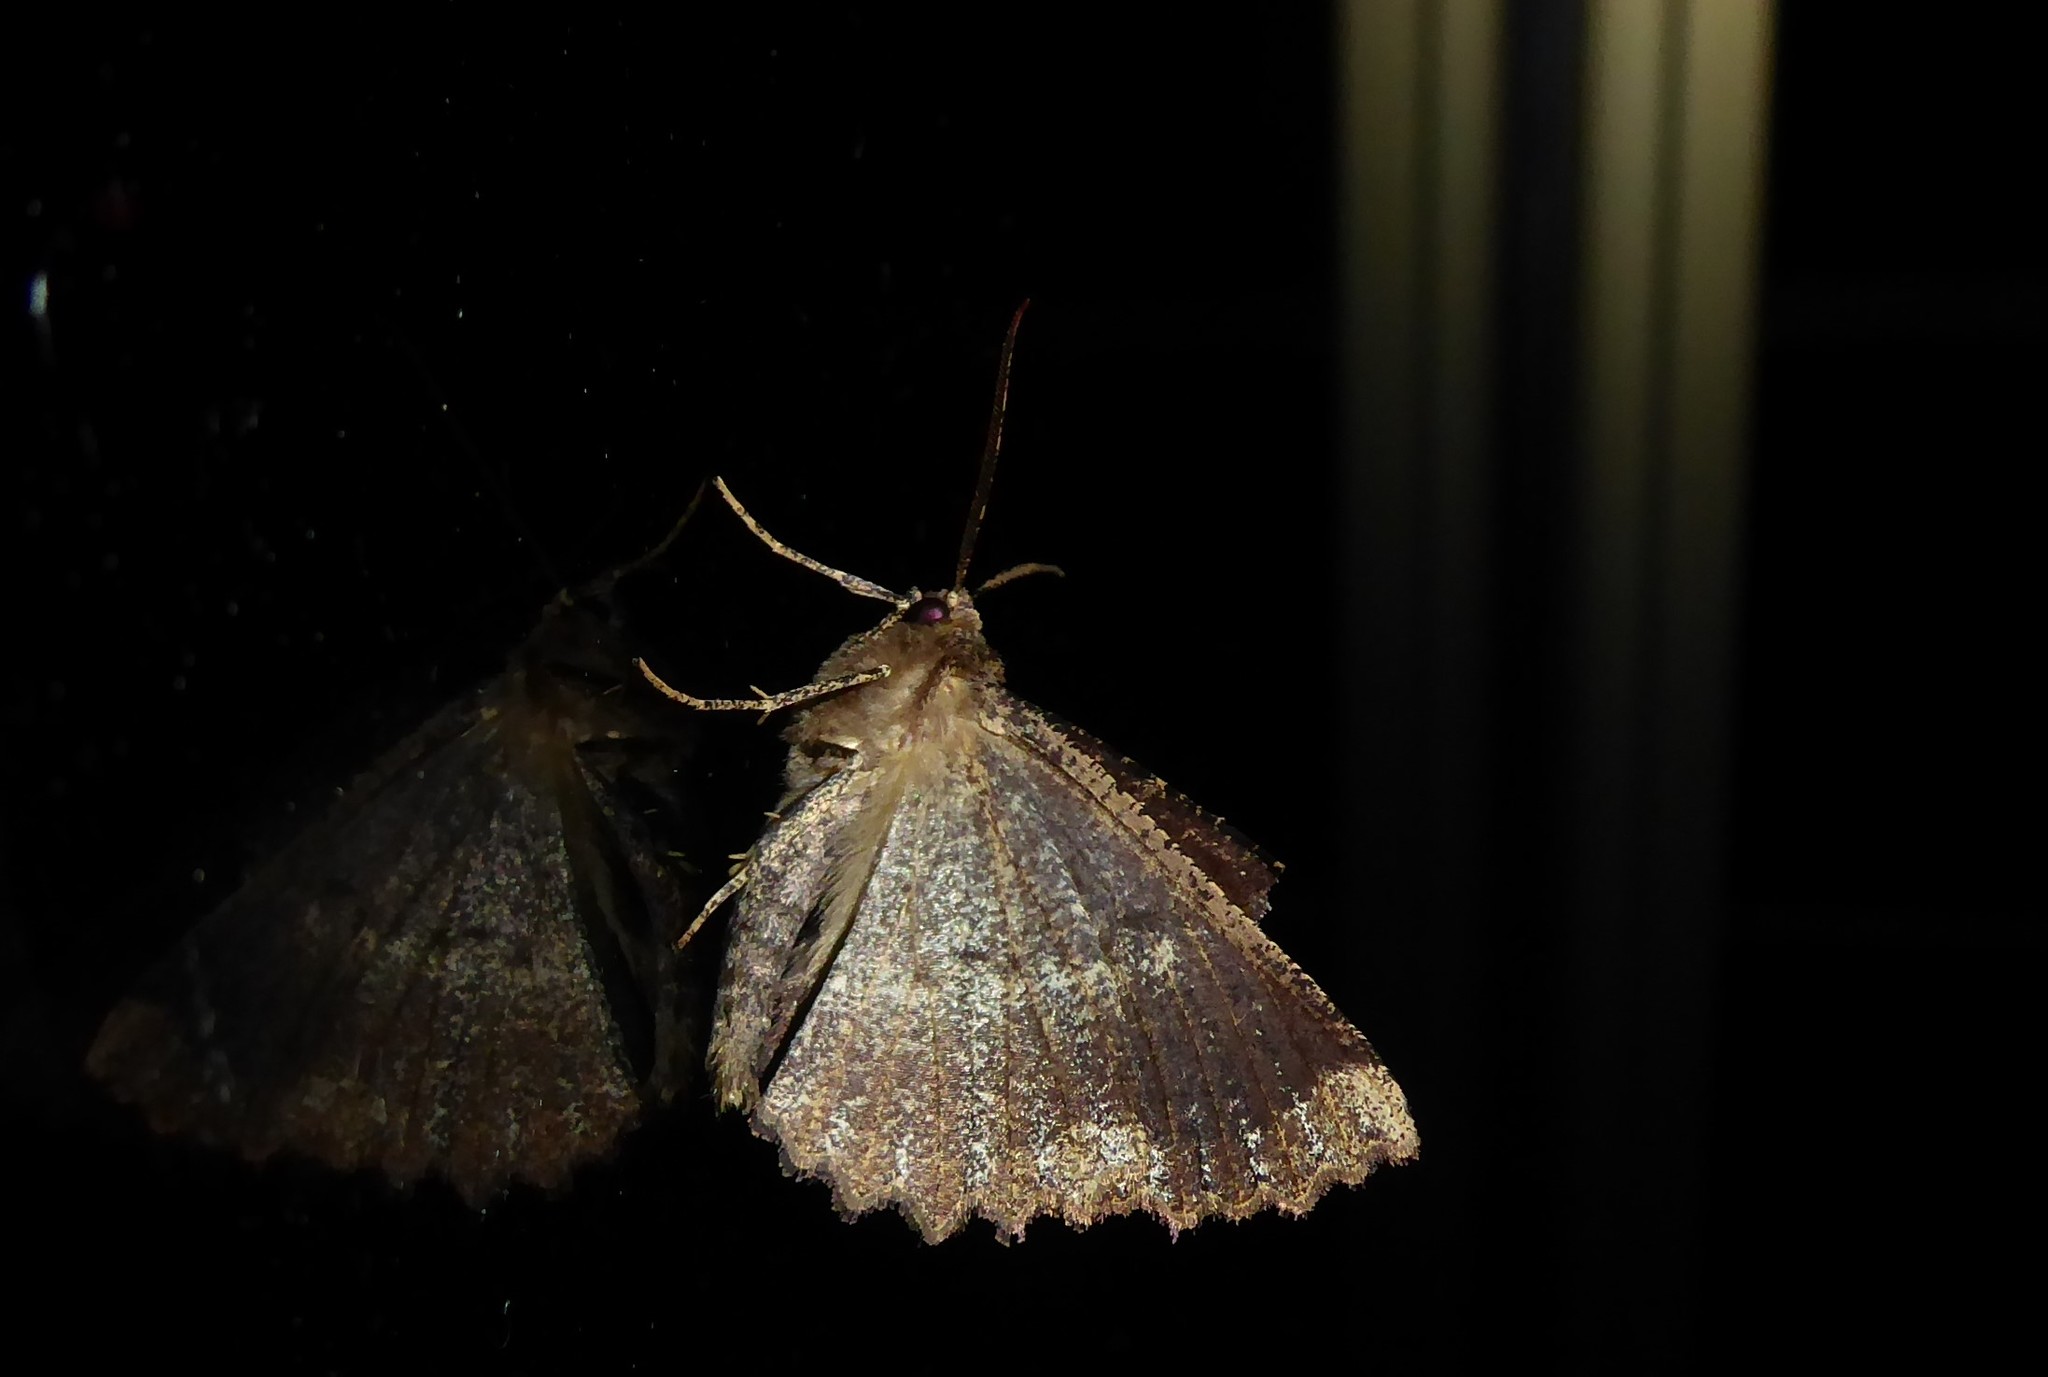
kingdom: Animalia
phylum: Arthropoda
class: Insecta
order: Lepidoptera
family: Geometridae
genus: Gellonia
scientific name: Gellonia dejectaria
